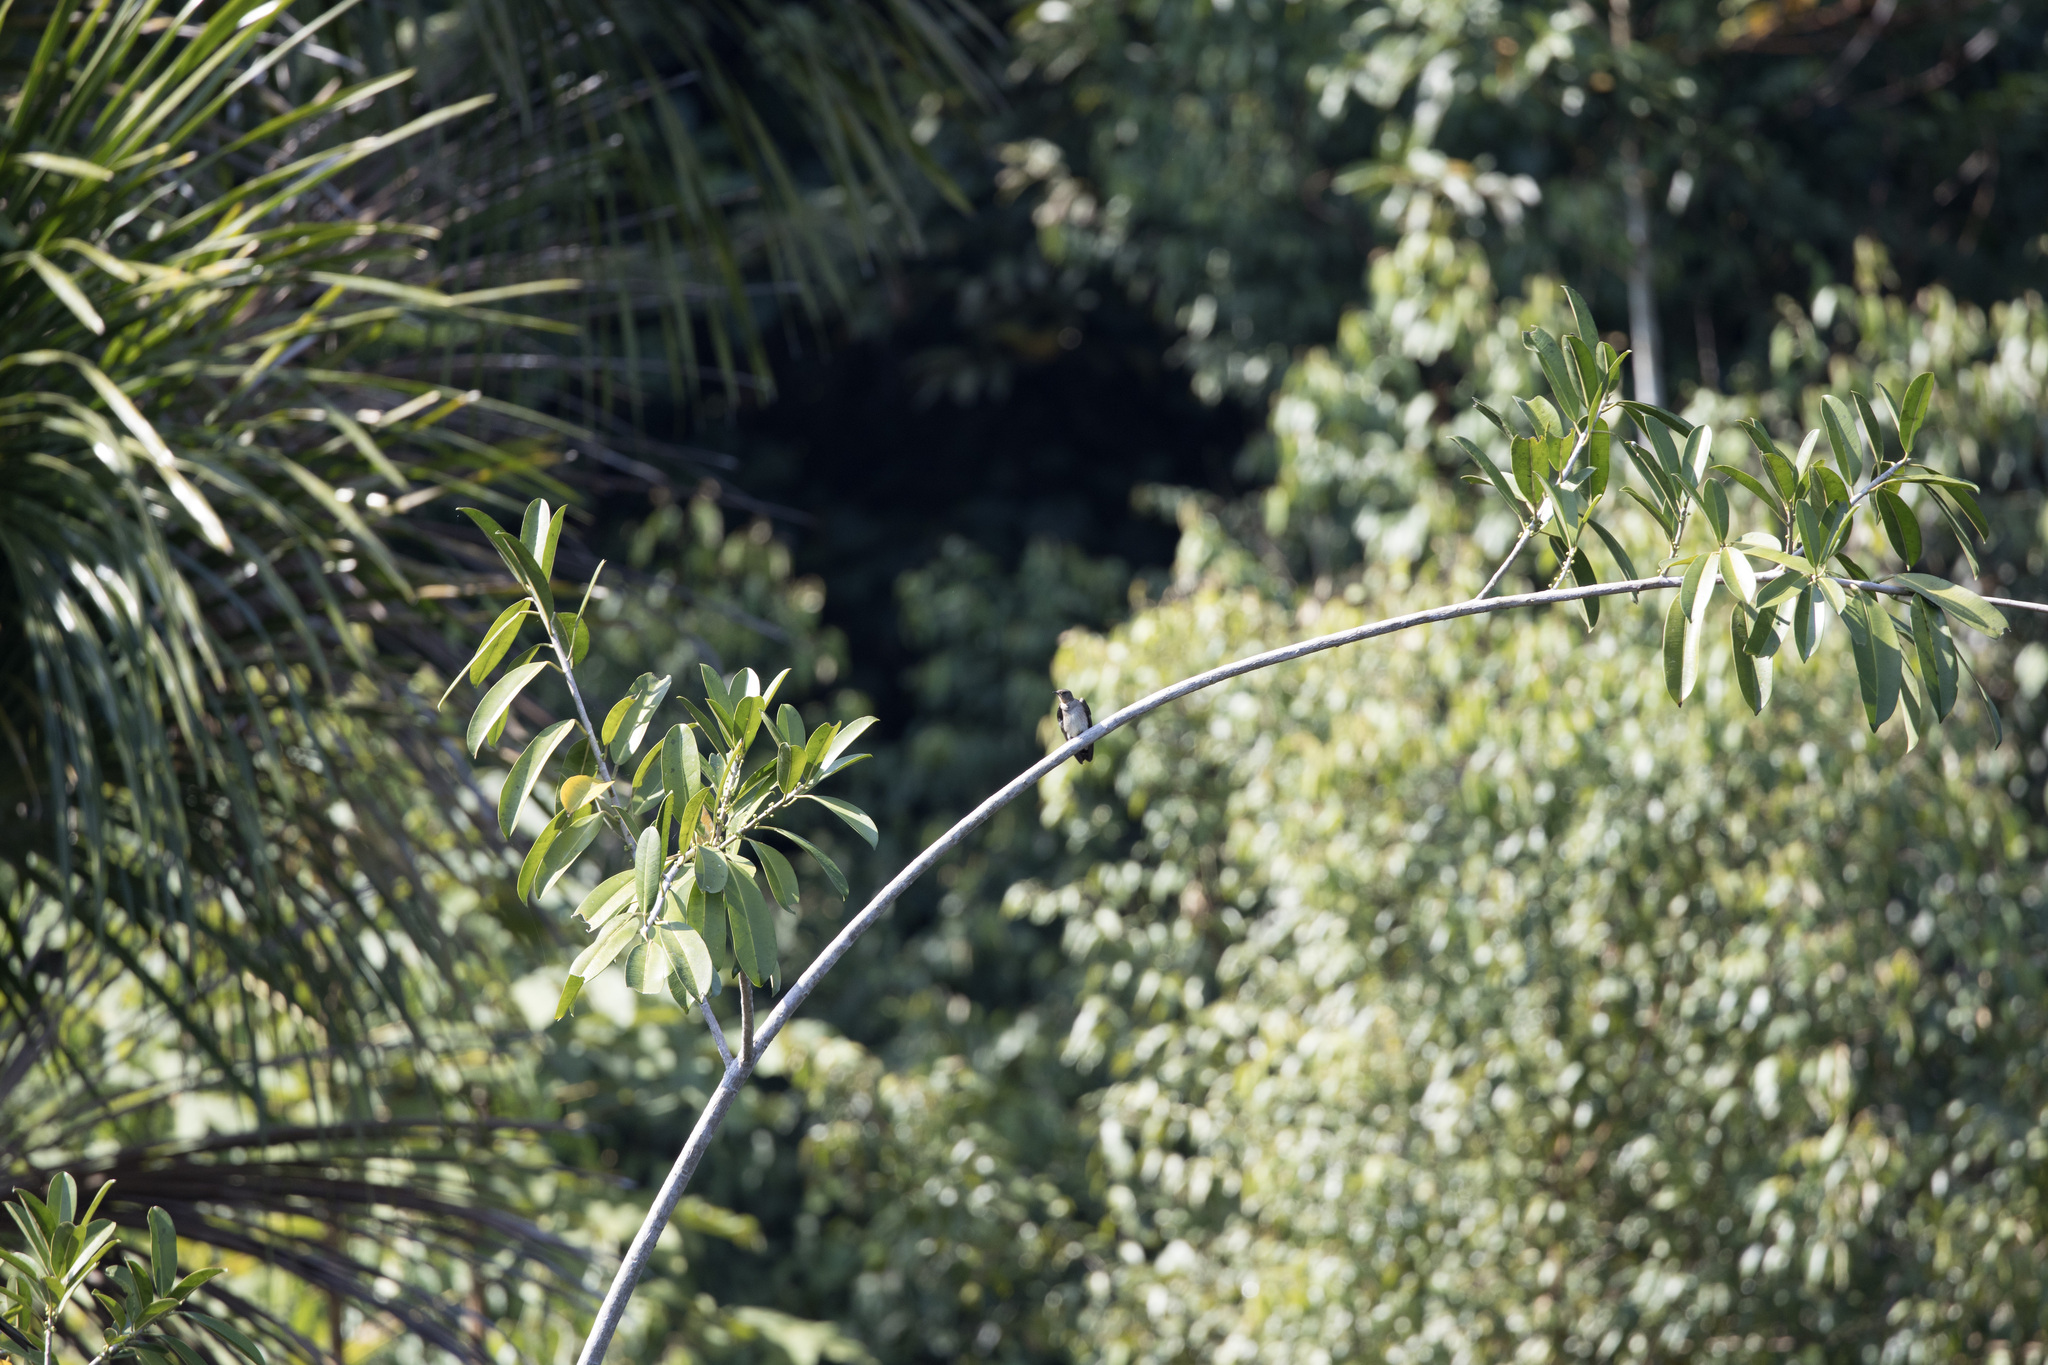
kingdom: Animalia
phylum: Chordata
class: Aves
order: Passeriformes
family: Hirundinidae
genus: Stelgidopteryx
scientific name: Stelgidopteryx ruficollis
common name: Southern rough-winged swallow
